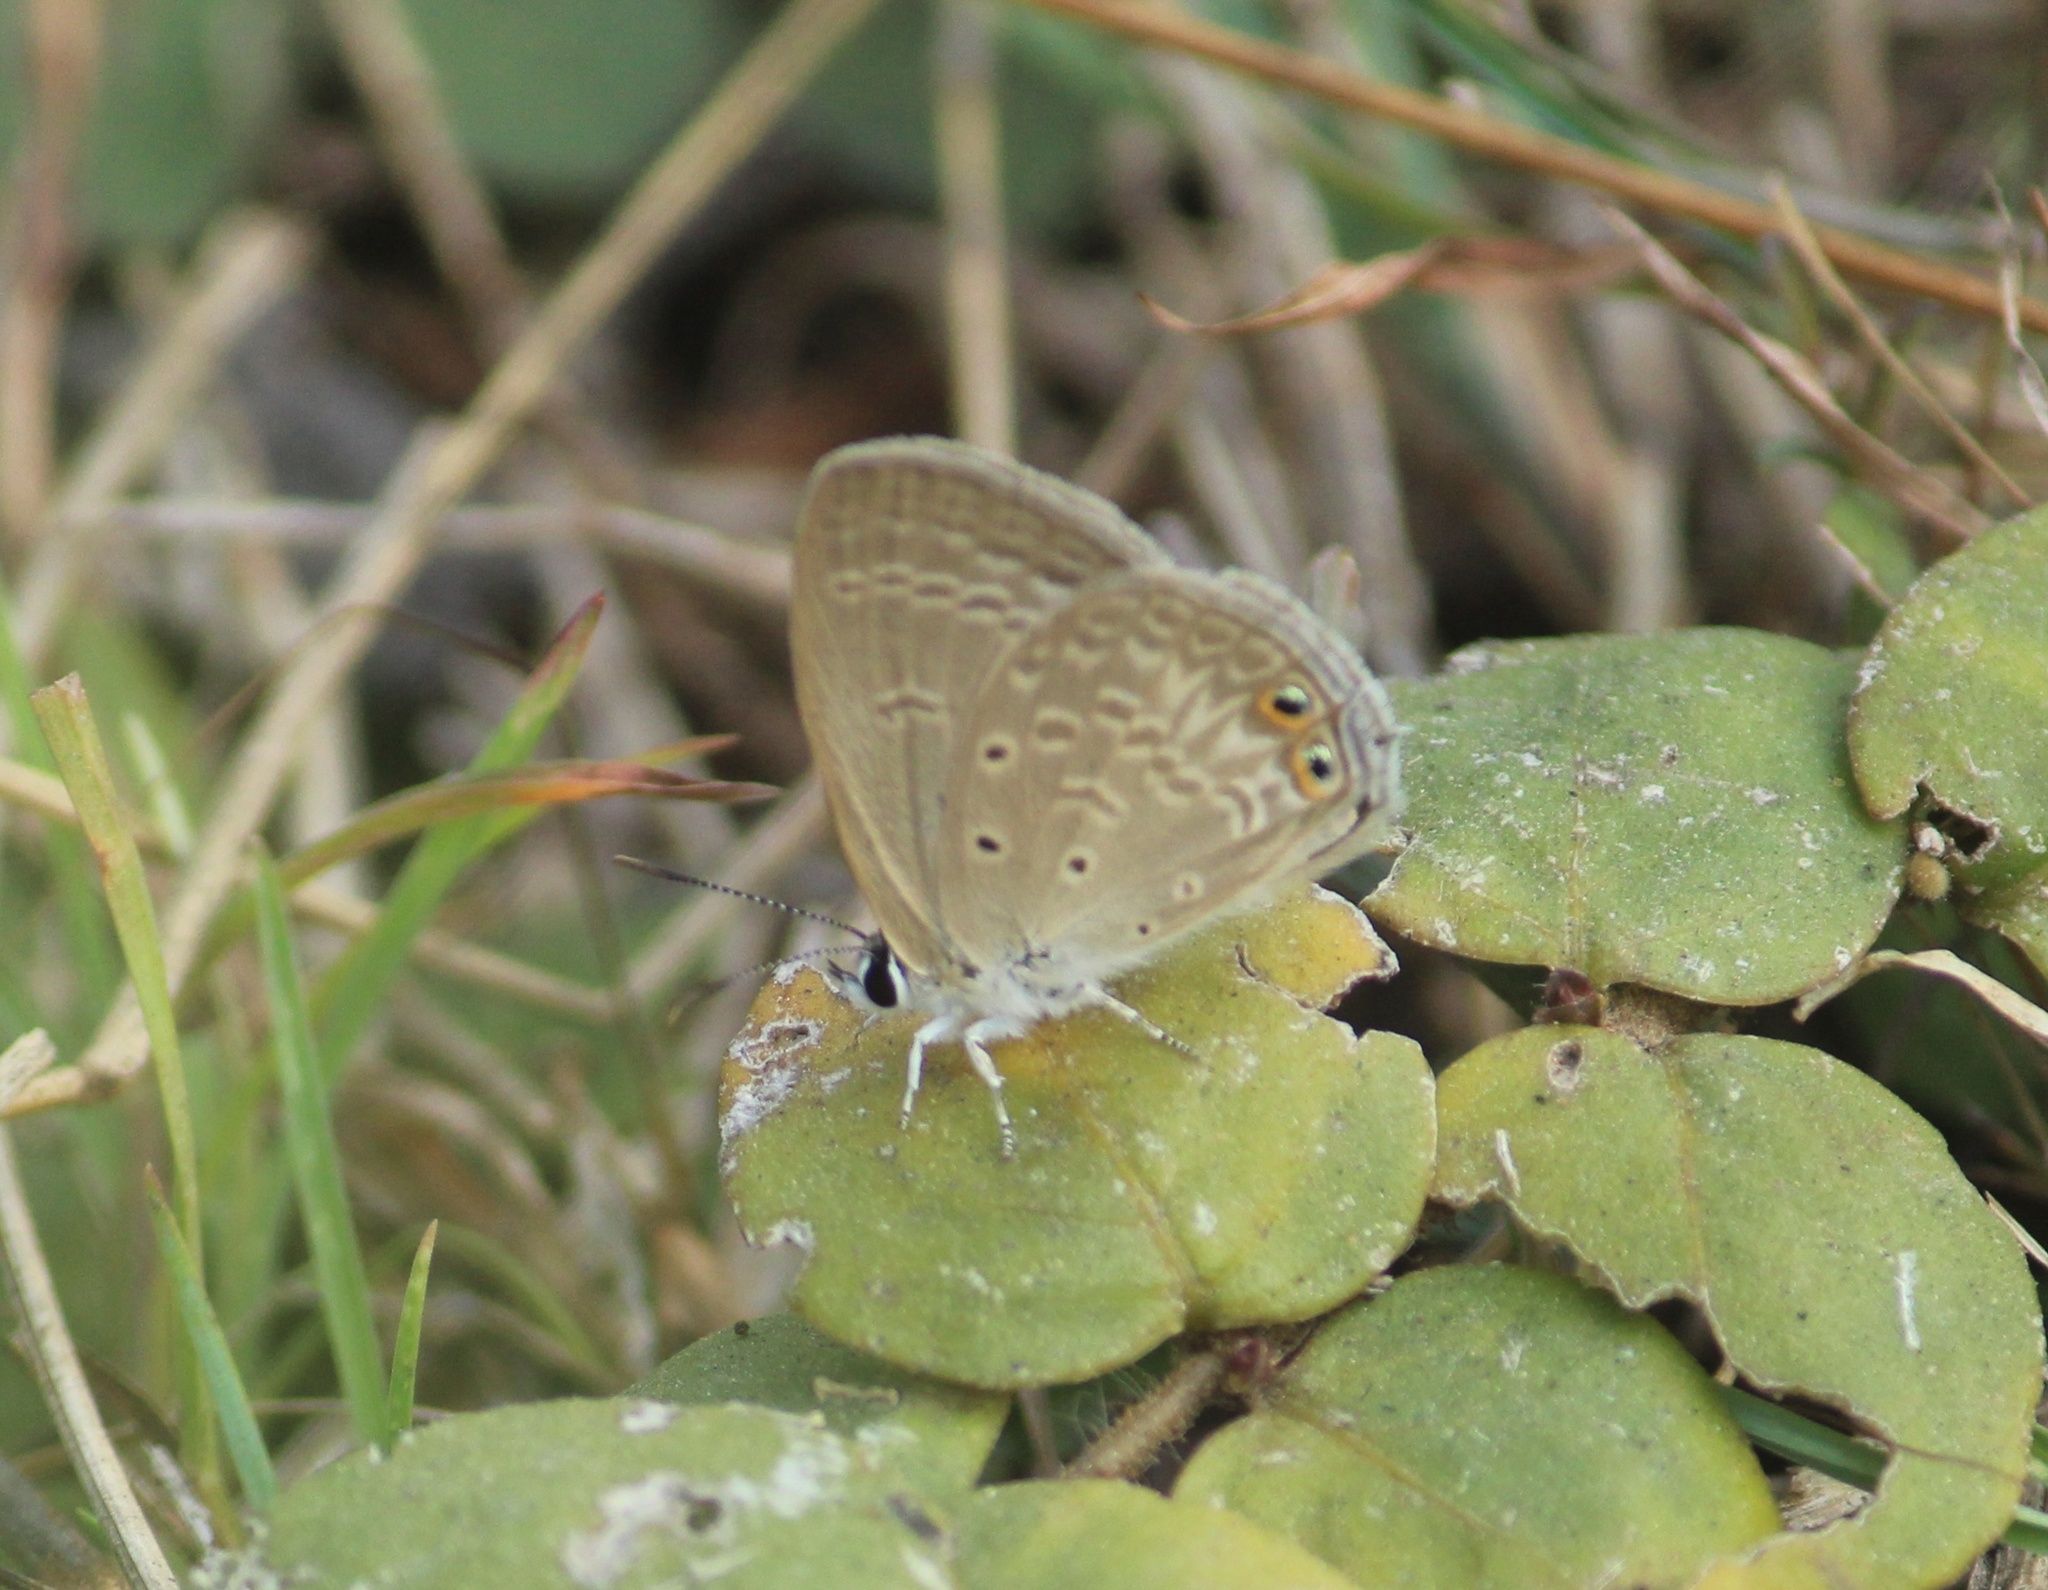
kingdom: Animalia
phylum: Arthropoda
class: Insecta
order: Lepidoptera
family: Lycaenidae
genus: Euchrysops
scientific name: Euchrysops cnejus
